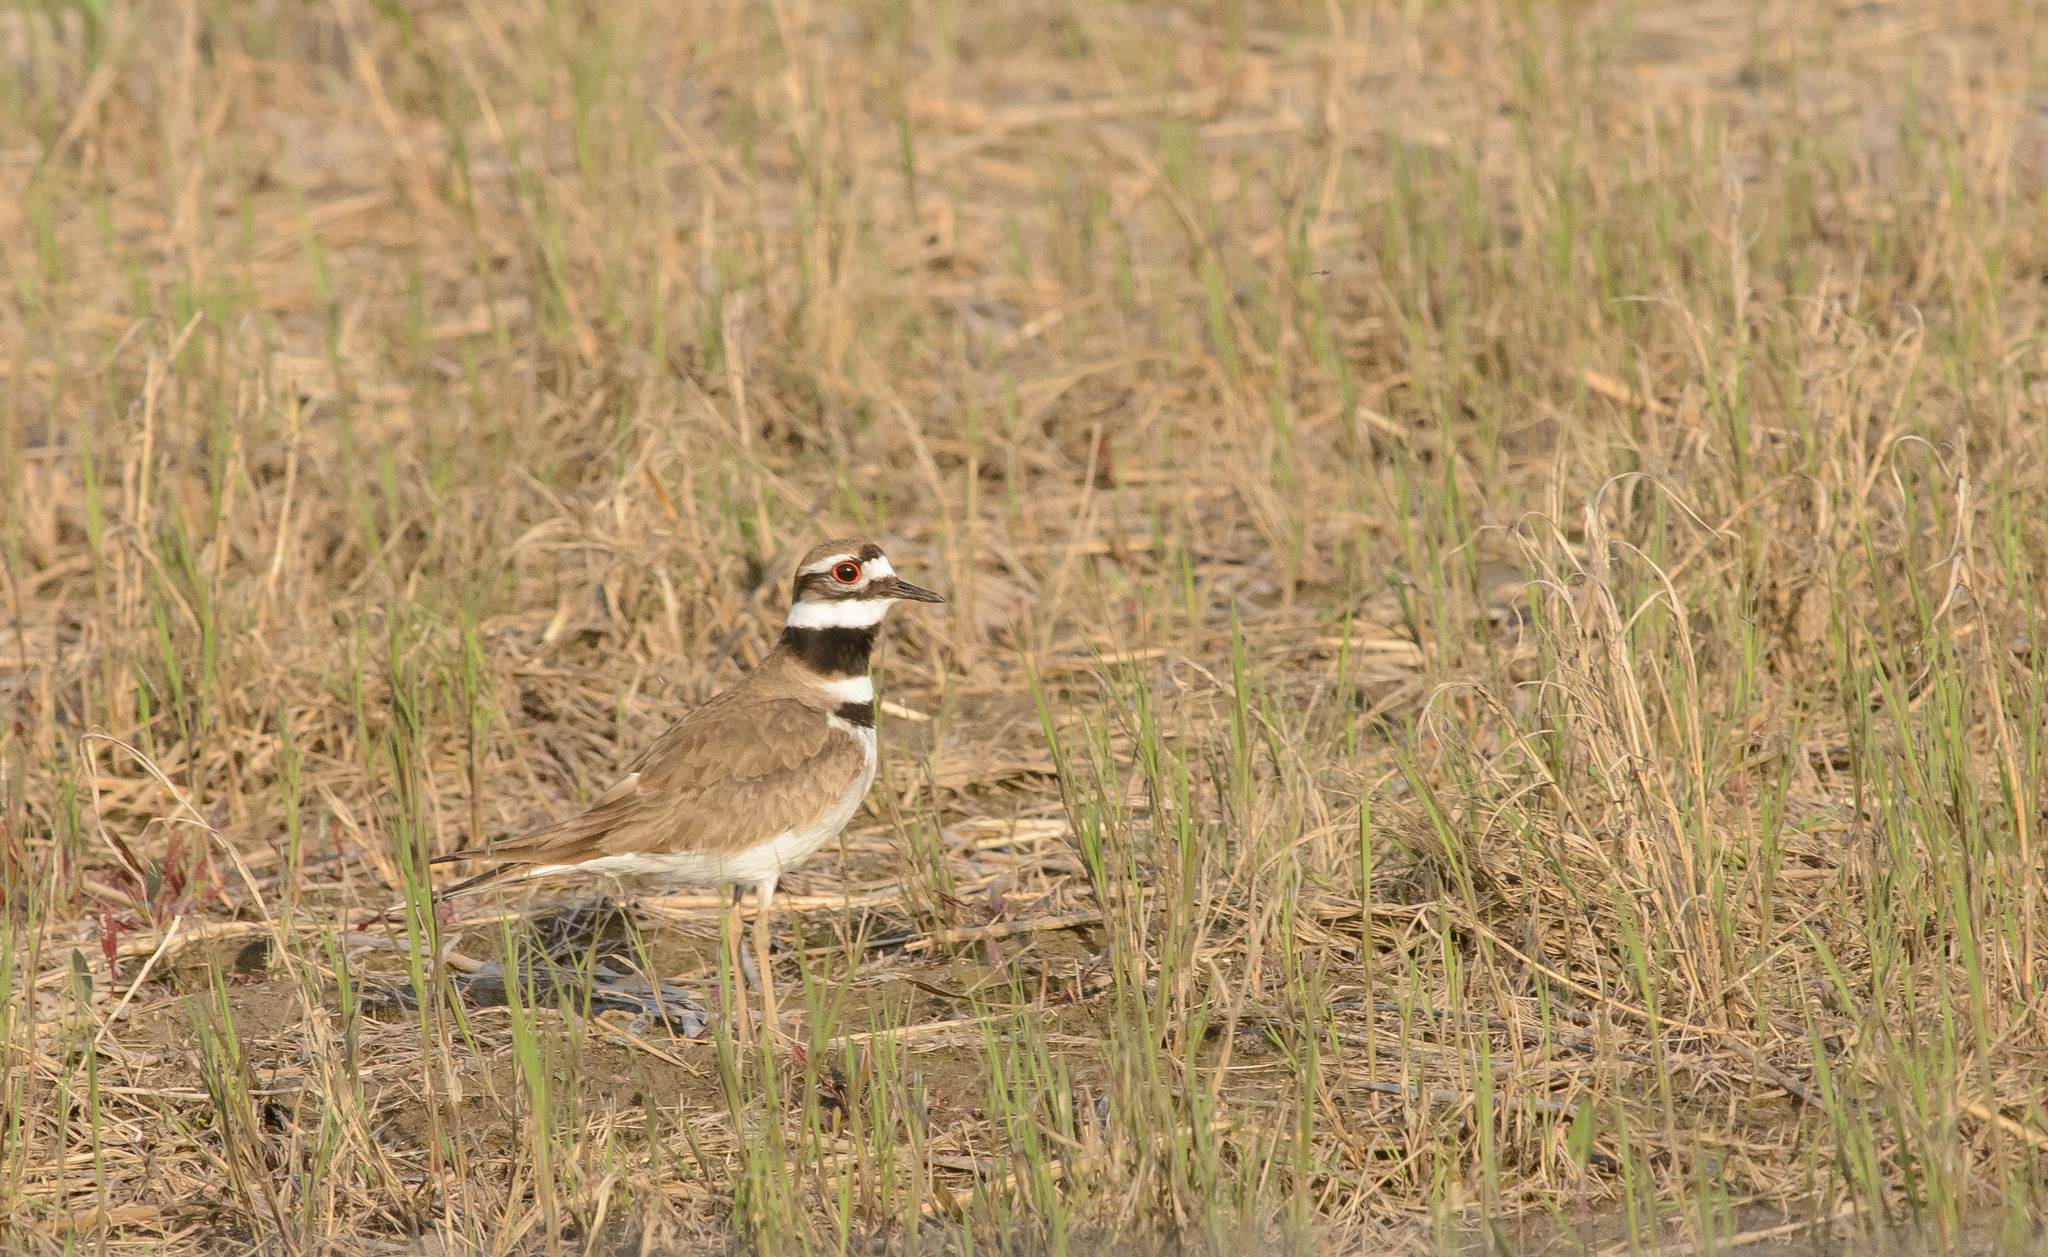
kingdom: Animalia
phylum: Chordata
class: Aves
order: Charadriiformes
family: Charadriidae
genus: Charadrius
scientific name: Charadrius vociferus
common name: Killdeer
